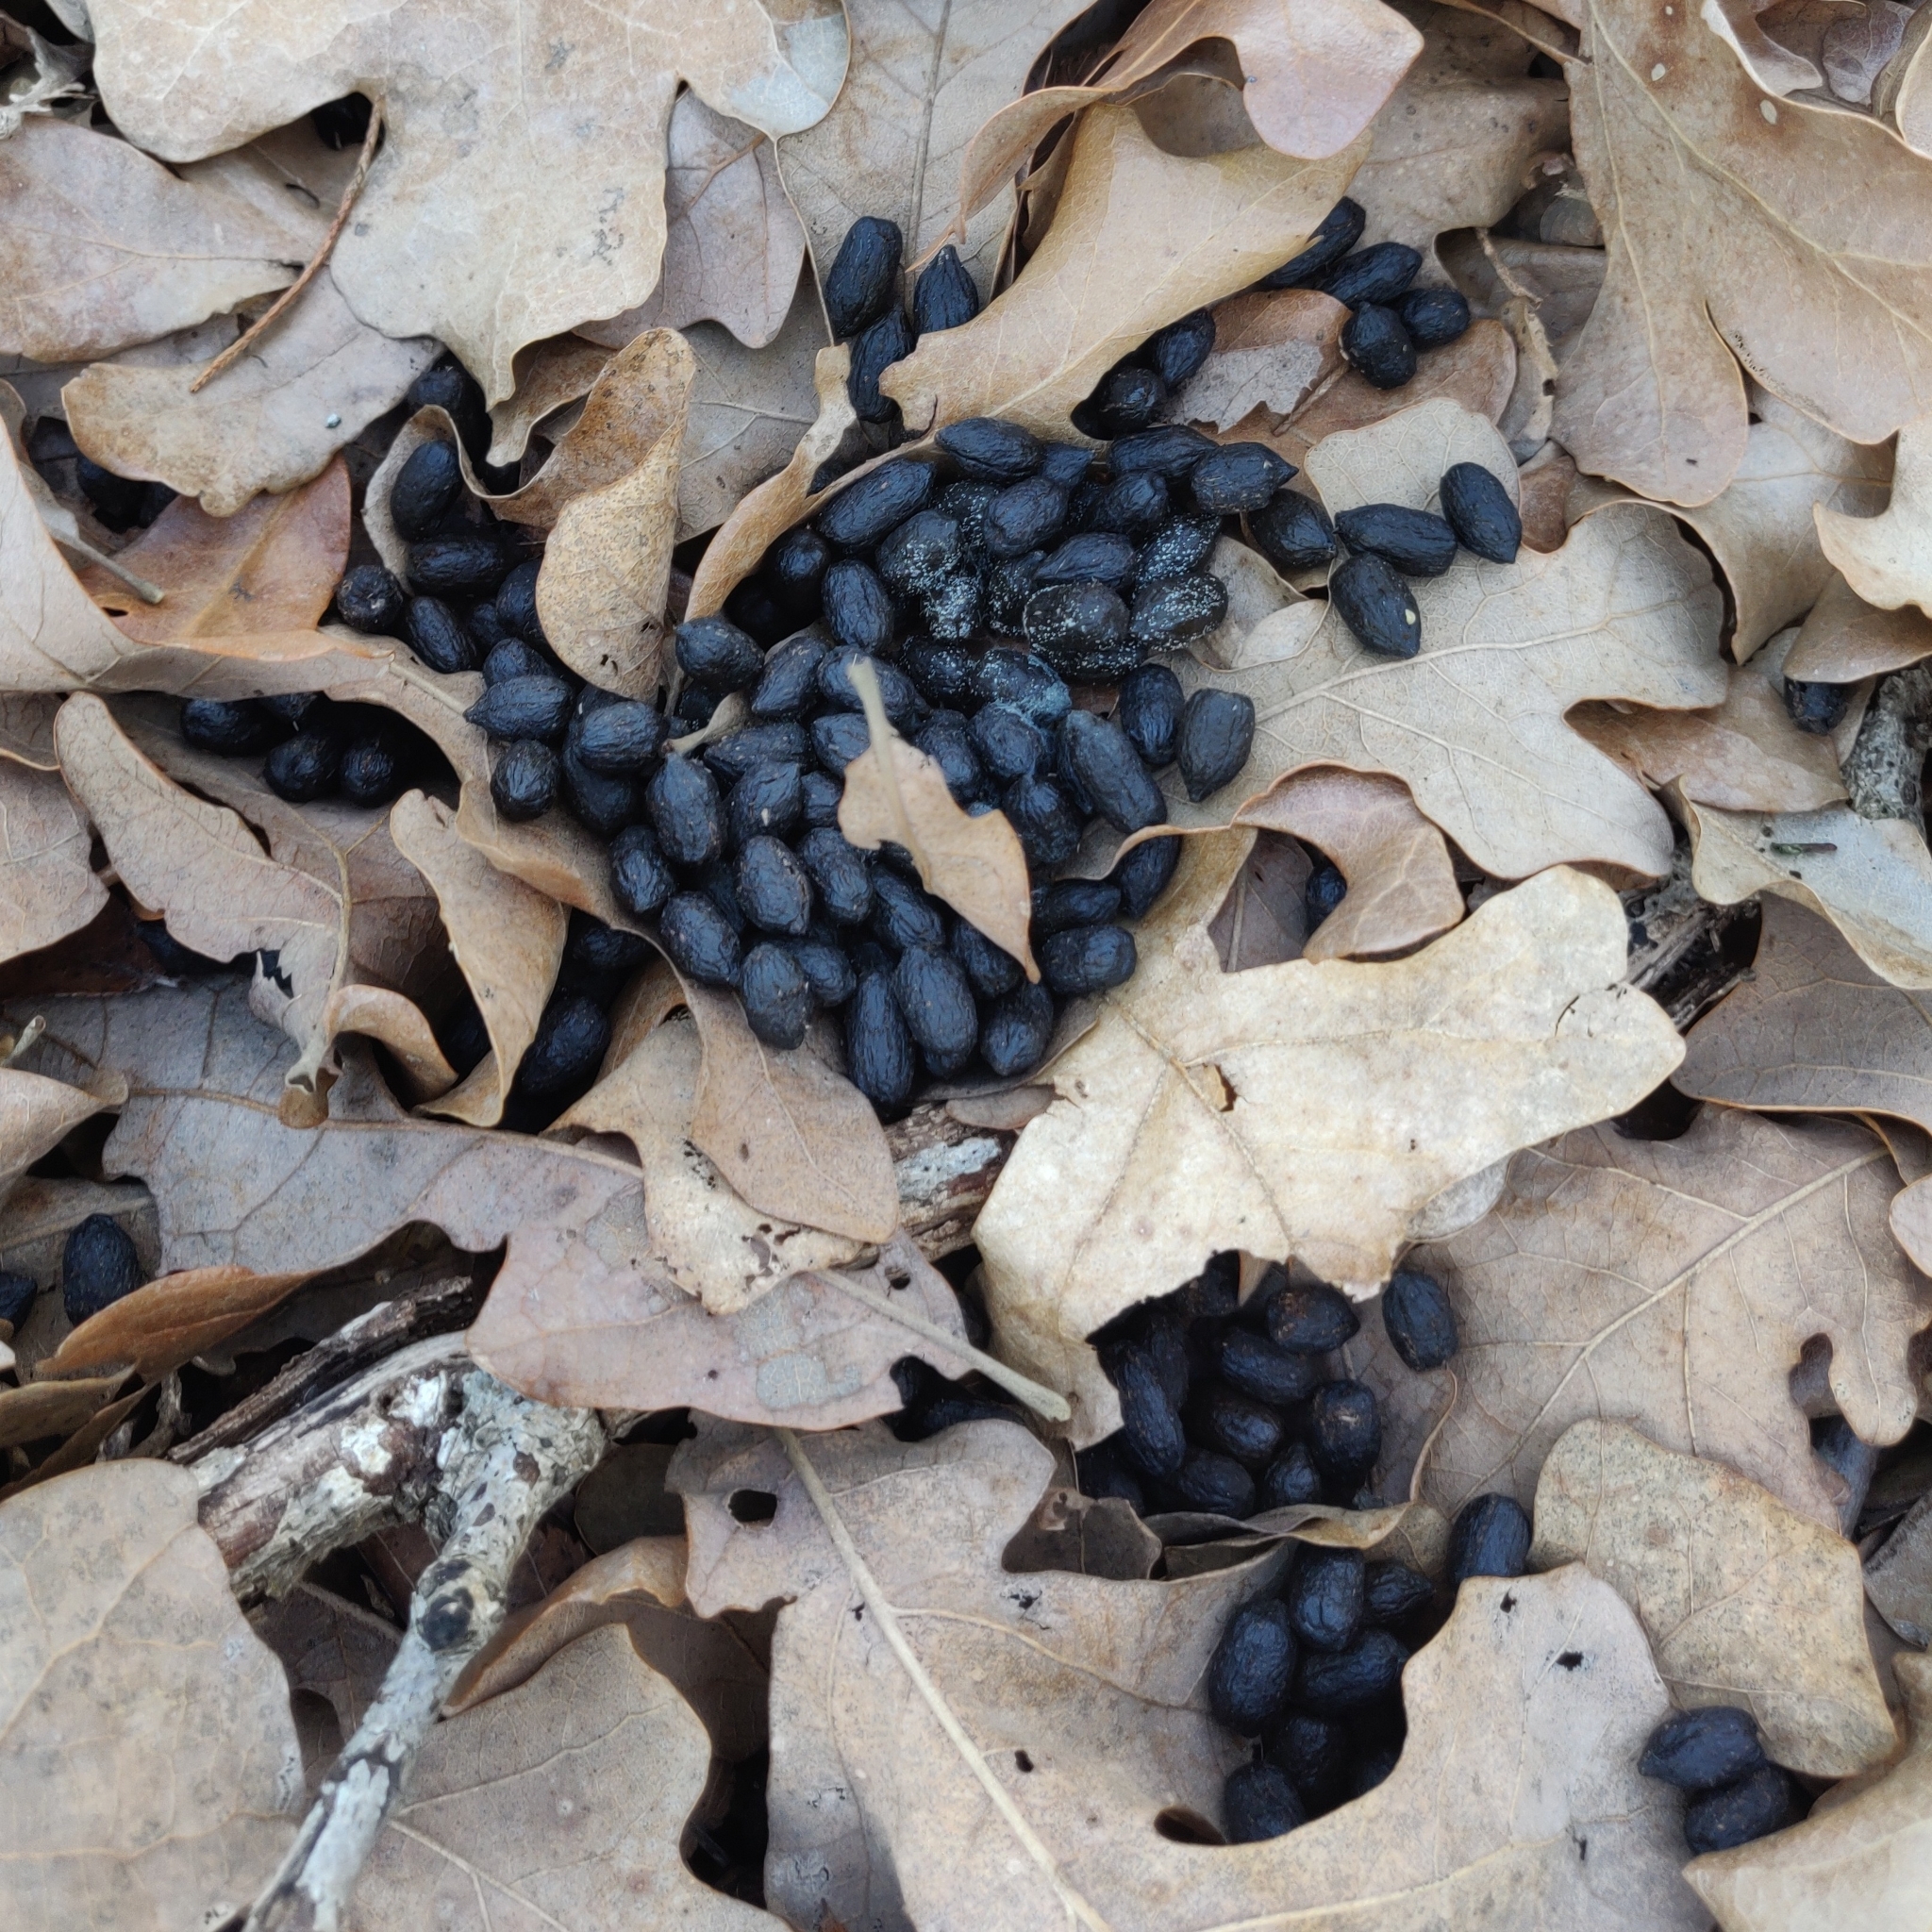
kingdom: Animalia
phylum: Chordata
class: Mammalia
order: Artiodactyla
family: Cervidae
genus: Odocoileus
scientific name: Odocoileus virginianus
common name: White-tailed deer
